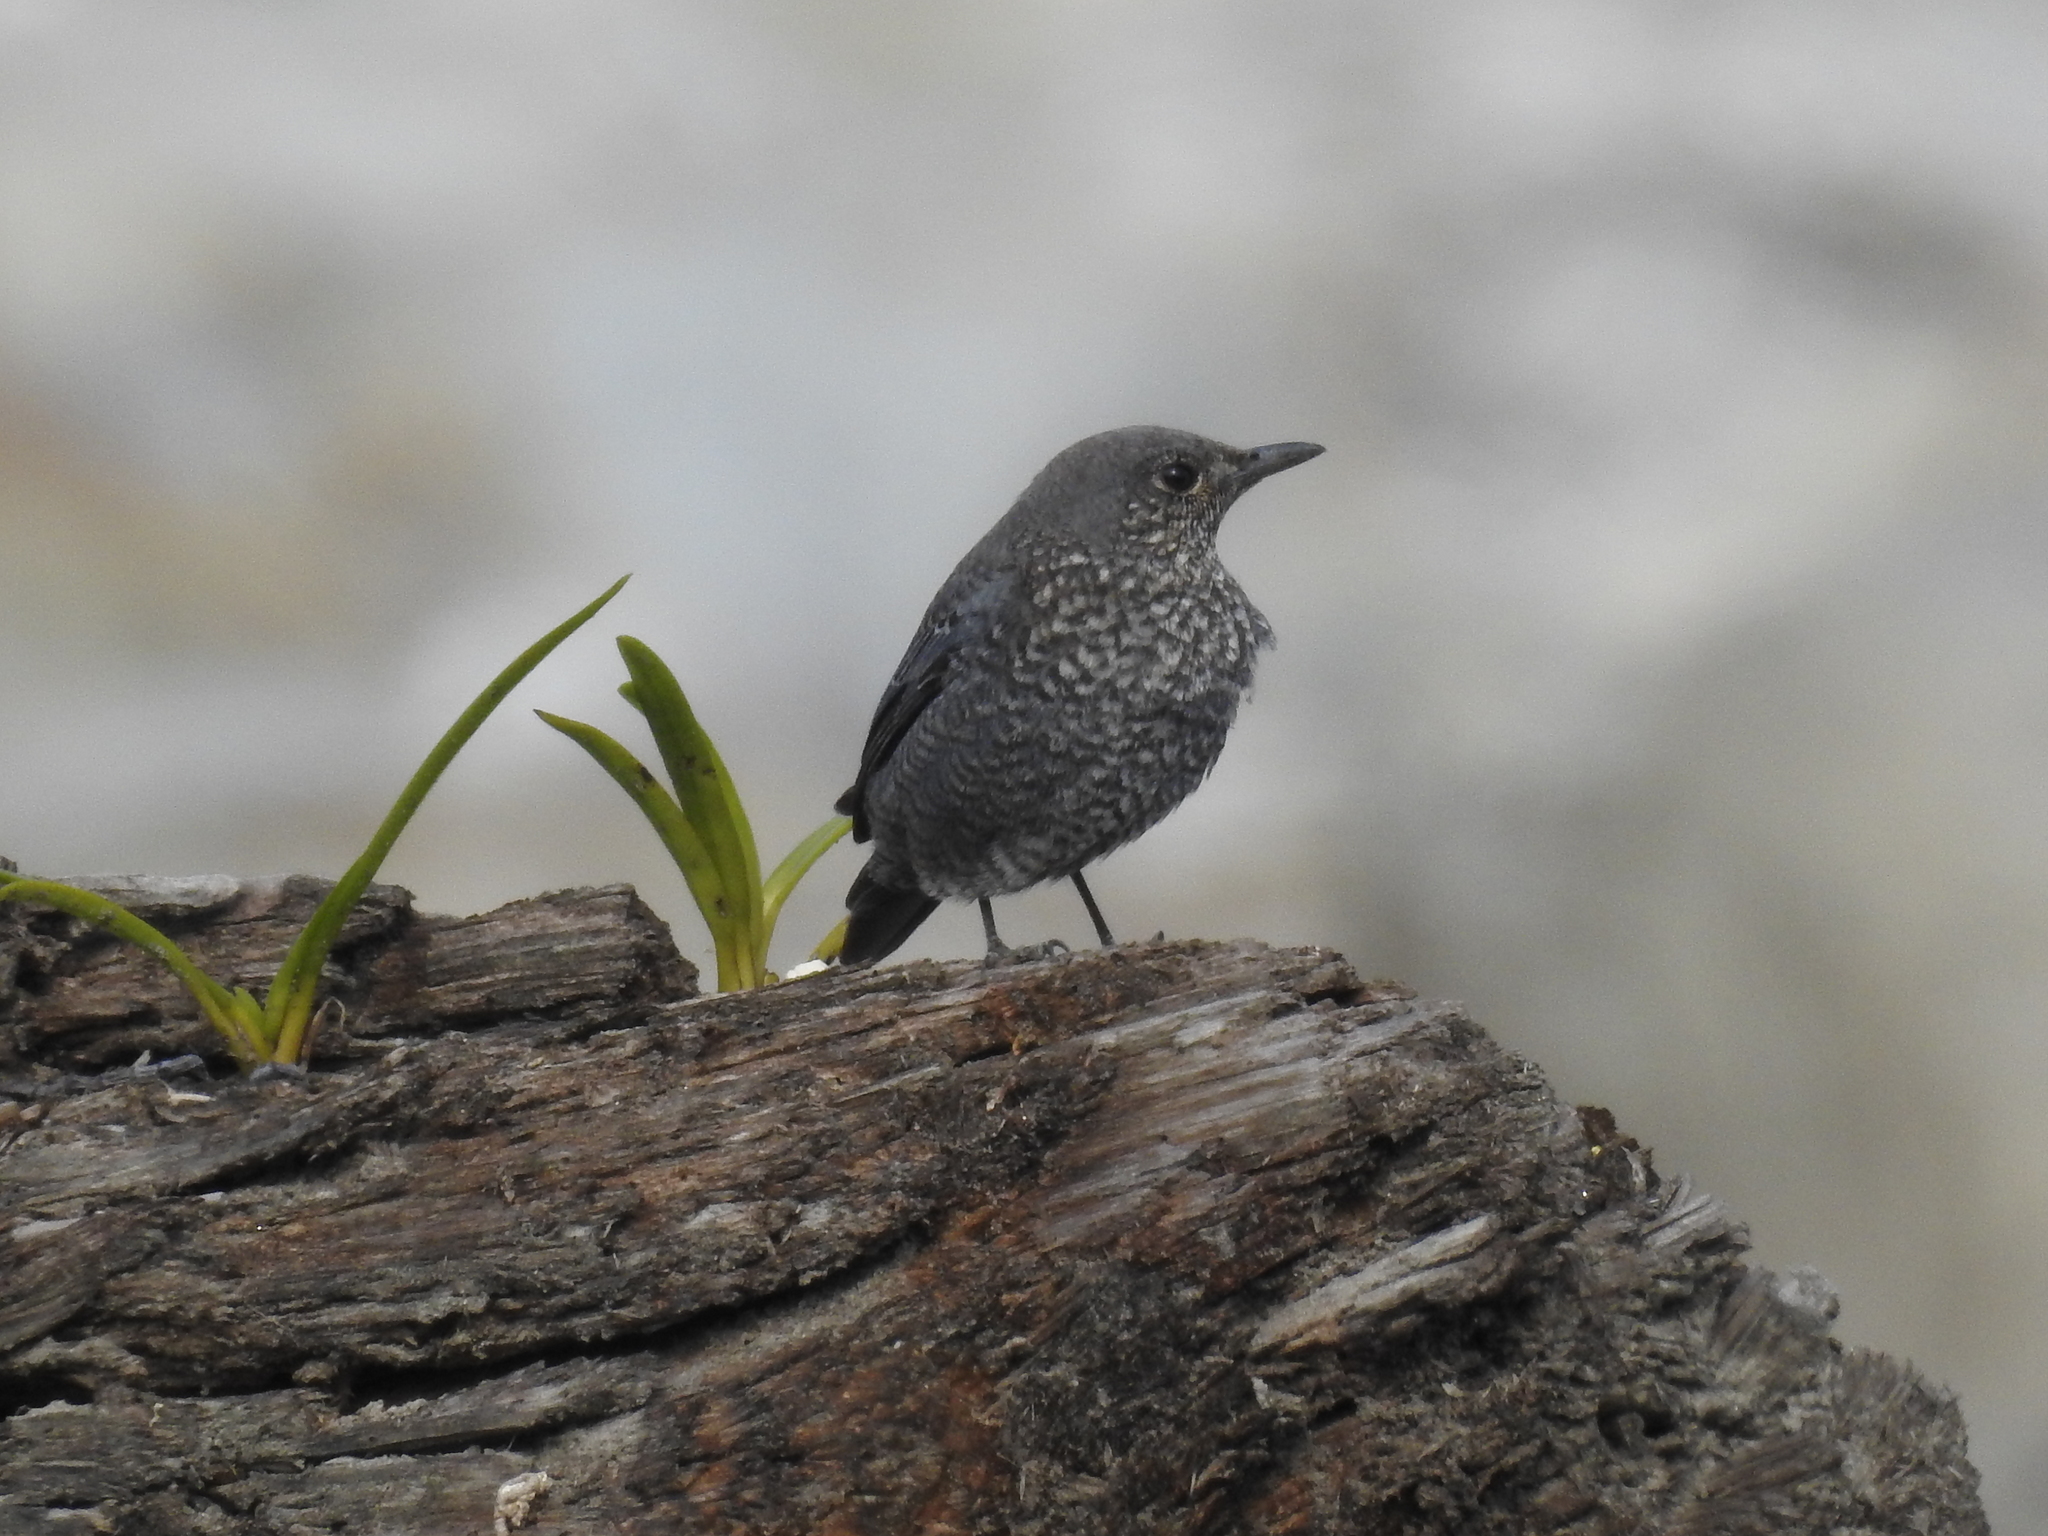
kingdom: Animalia
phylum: Chordata
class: Aves
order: Passeriformes
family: Muscicapidae
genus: Monticola
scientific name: Monticola solitarius
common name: Blue rock thrush
